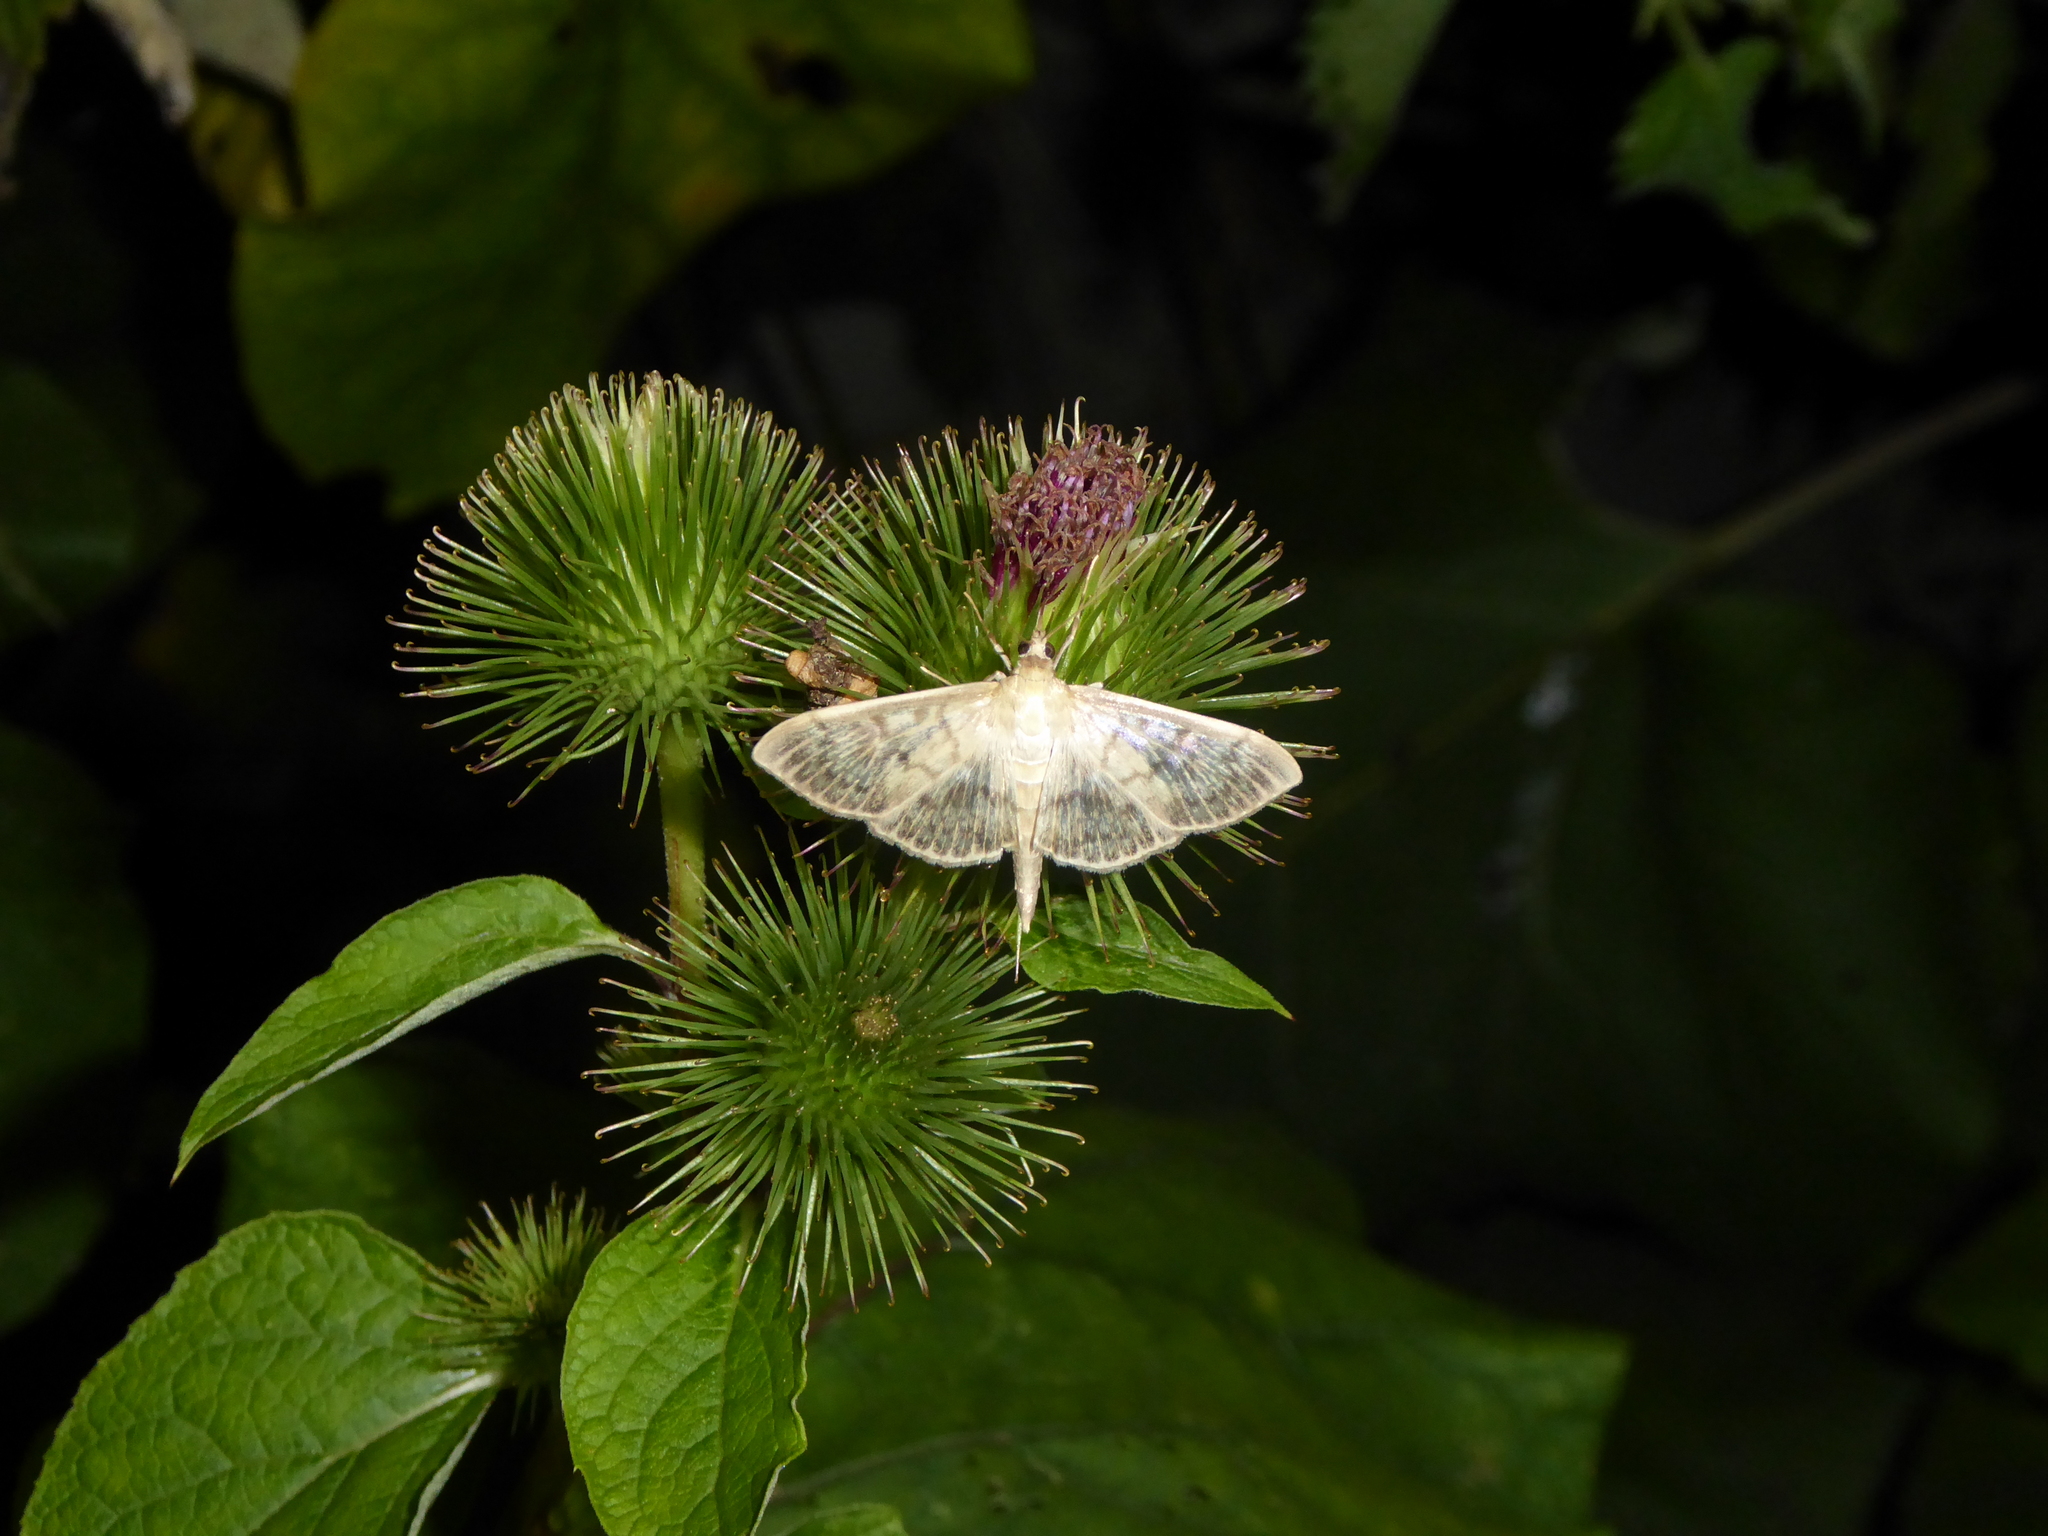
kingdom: Animalia
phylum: Arthropoda
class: Insecta
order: Lepidoptera
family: Crambidae
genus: Patania
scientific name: Patania ruralis
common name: Mother of pearl
